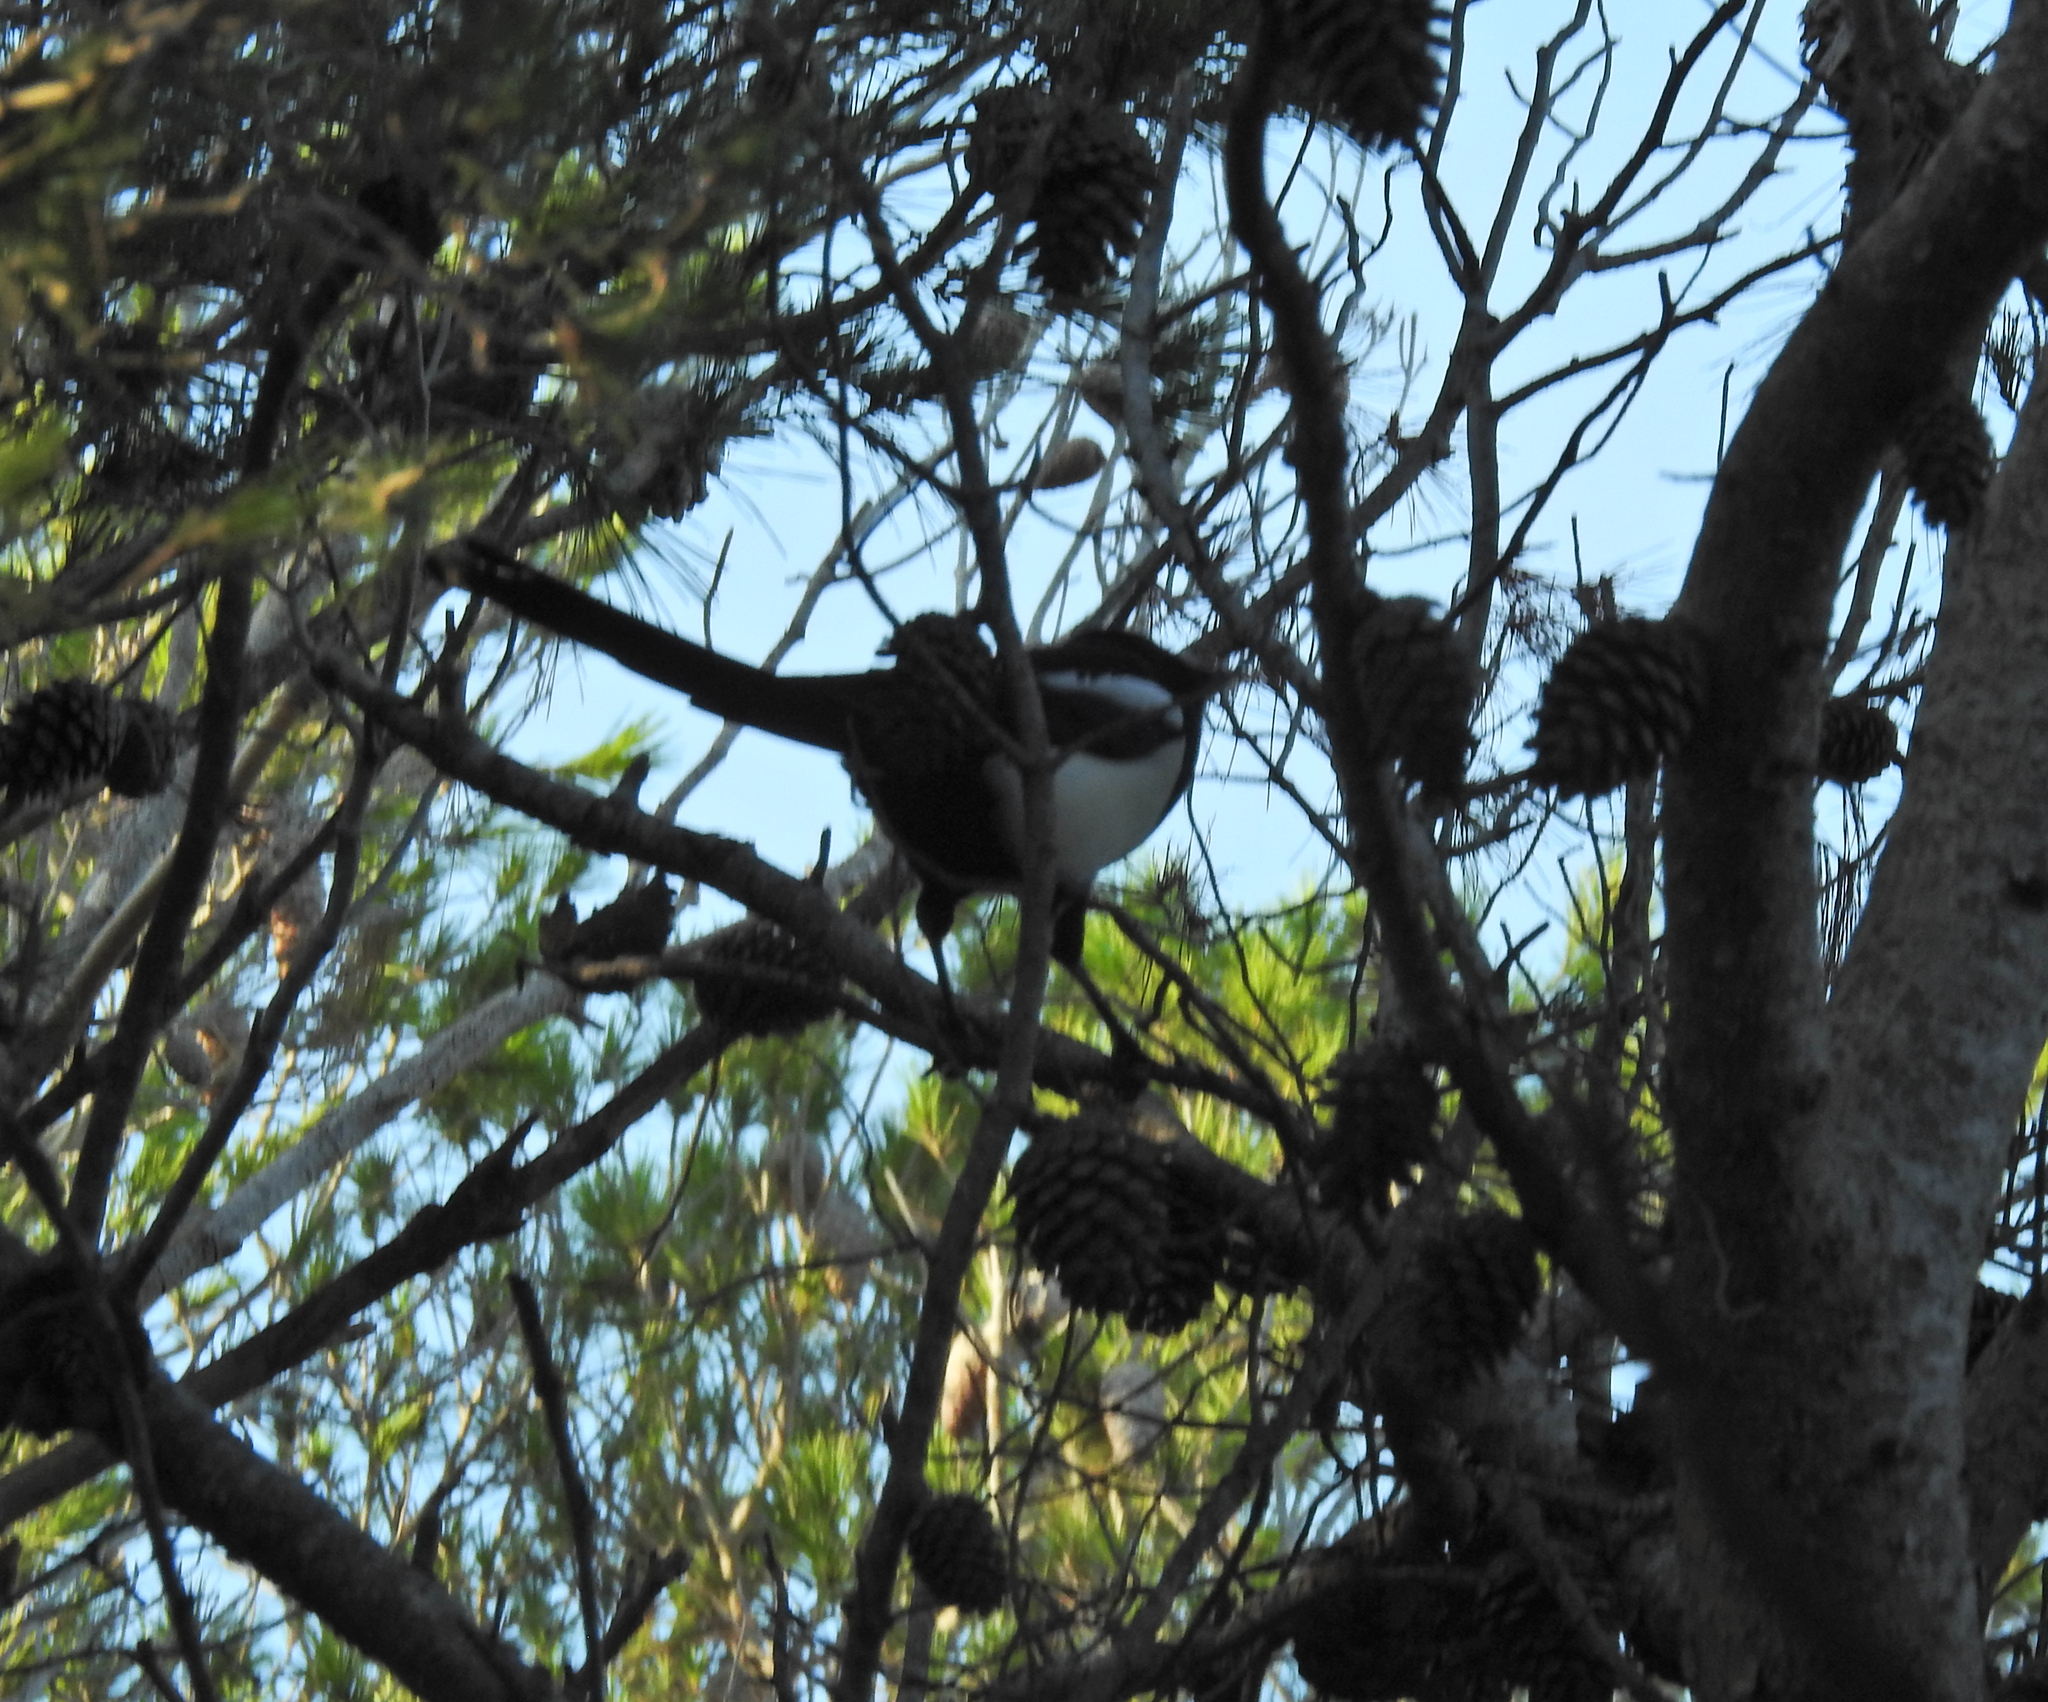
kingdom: Animalia
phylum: Chordata
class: Aves
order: Passeriformes
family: Corvidae
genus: Pica
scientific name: Pica pica
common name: Eurasian magpie
